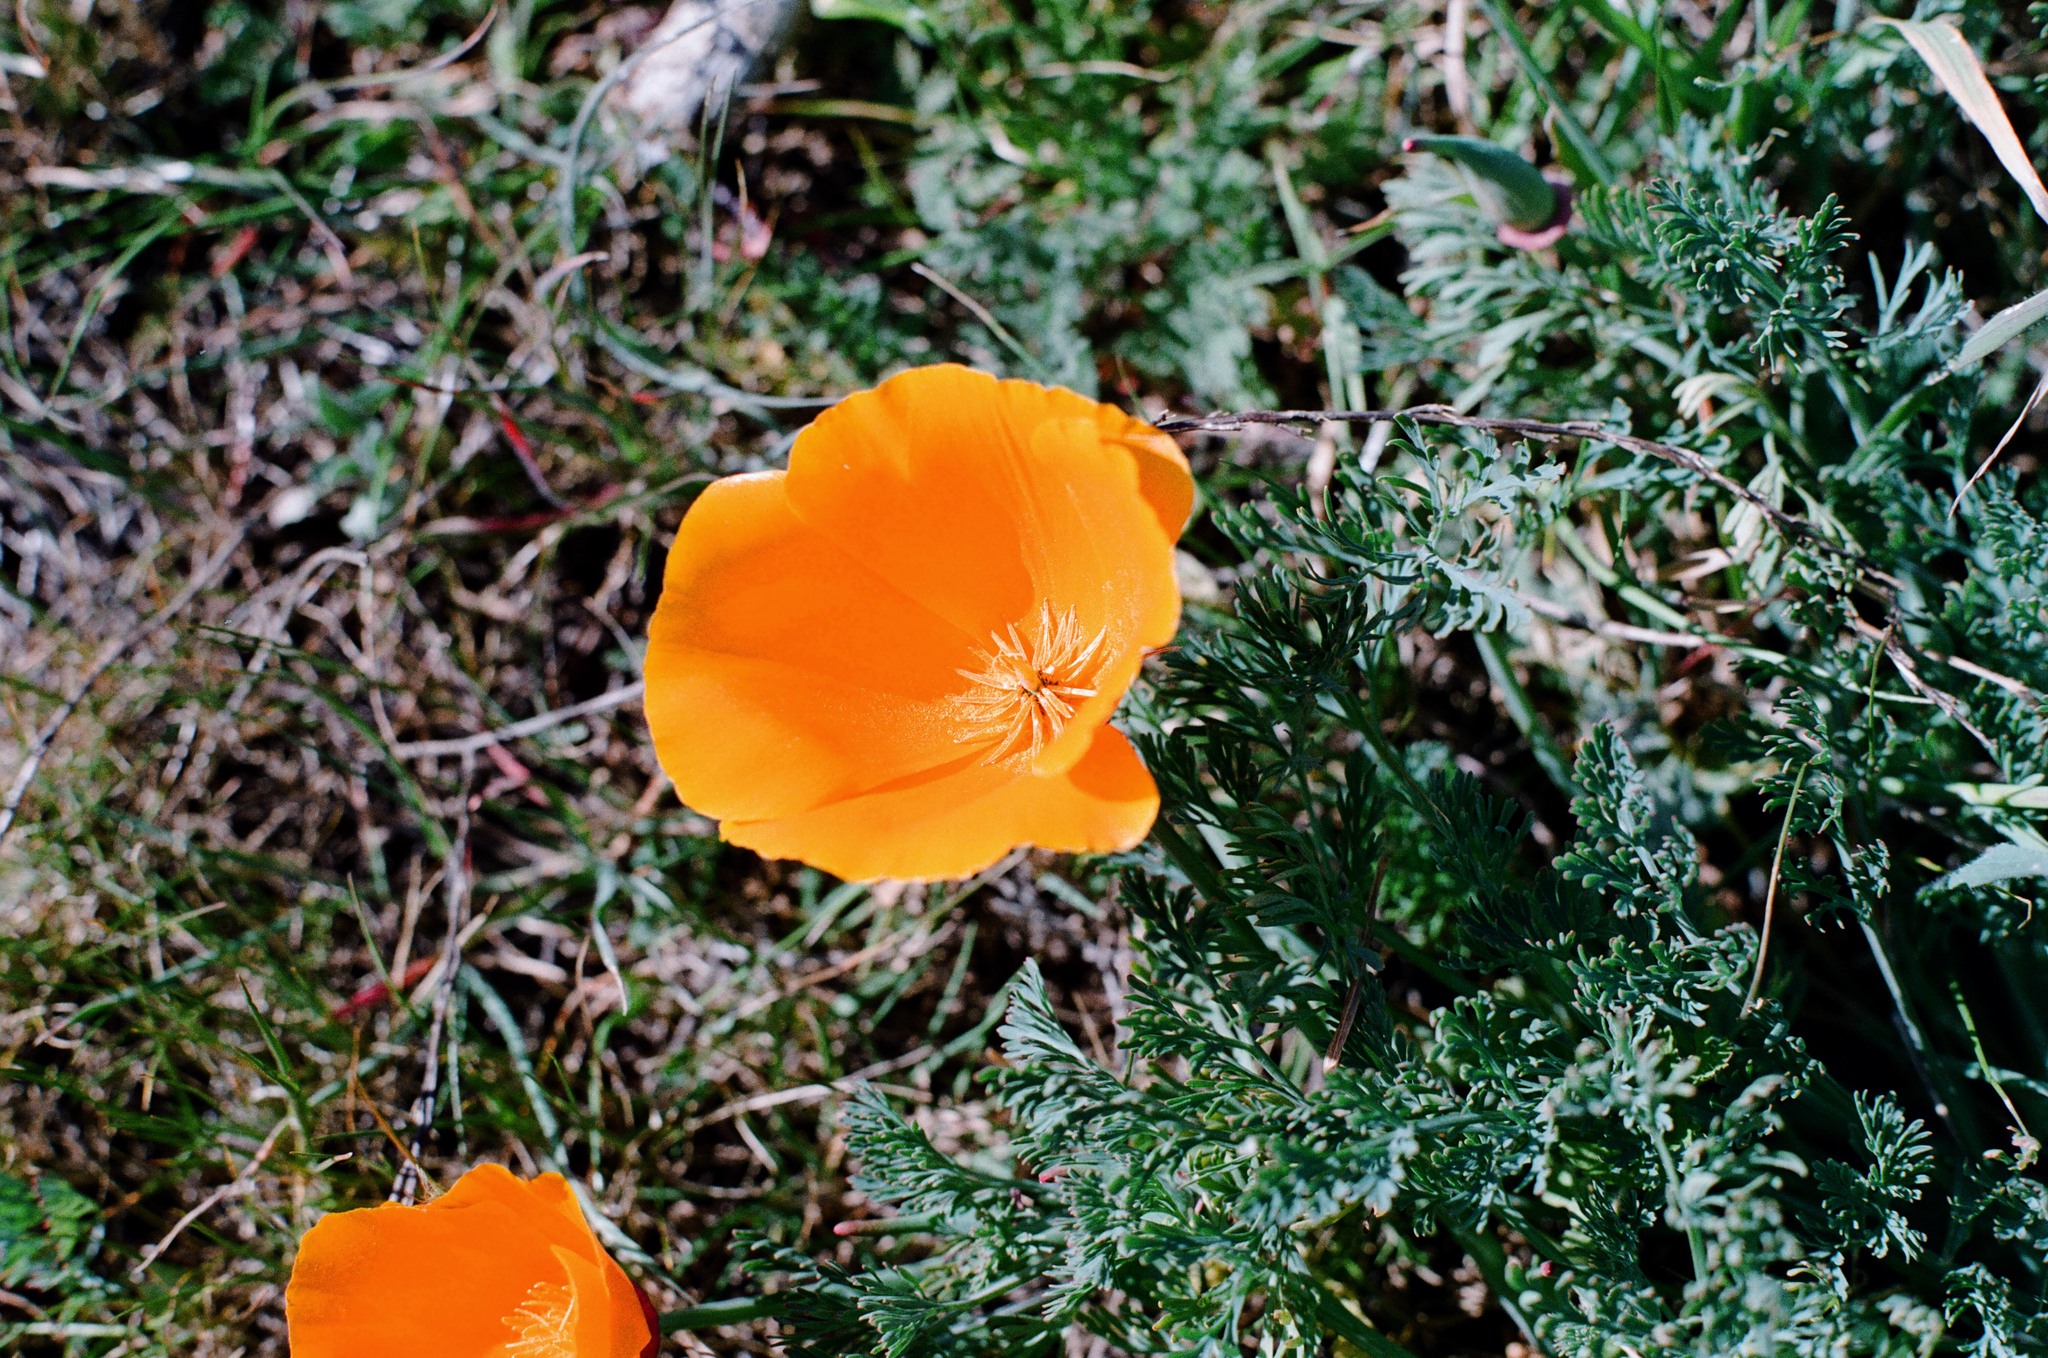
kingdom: Plantae
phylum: Tracheophyta
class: Magnoliopsida
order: Ranunculales
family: Papaveraceae
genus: Eschscholzia
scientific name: Eschscholzia californica
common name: California poppy
